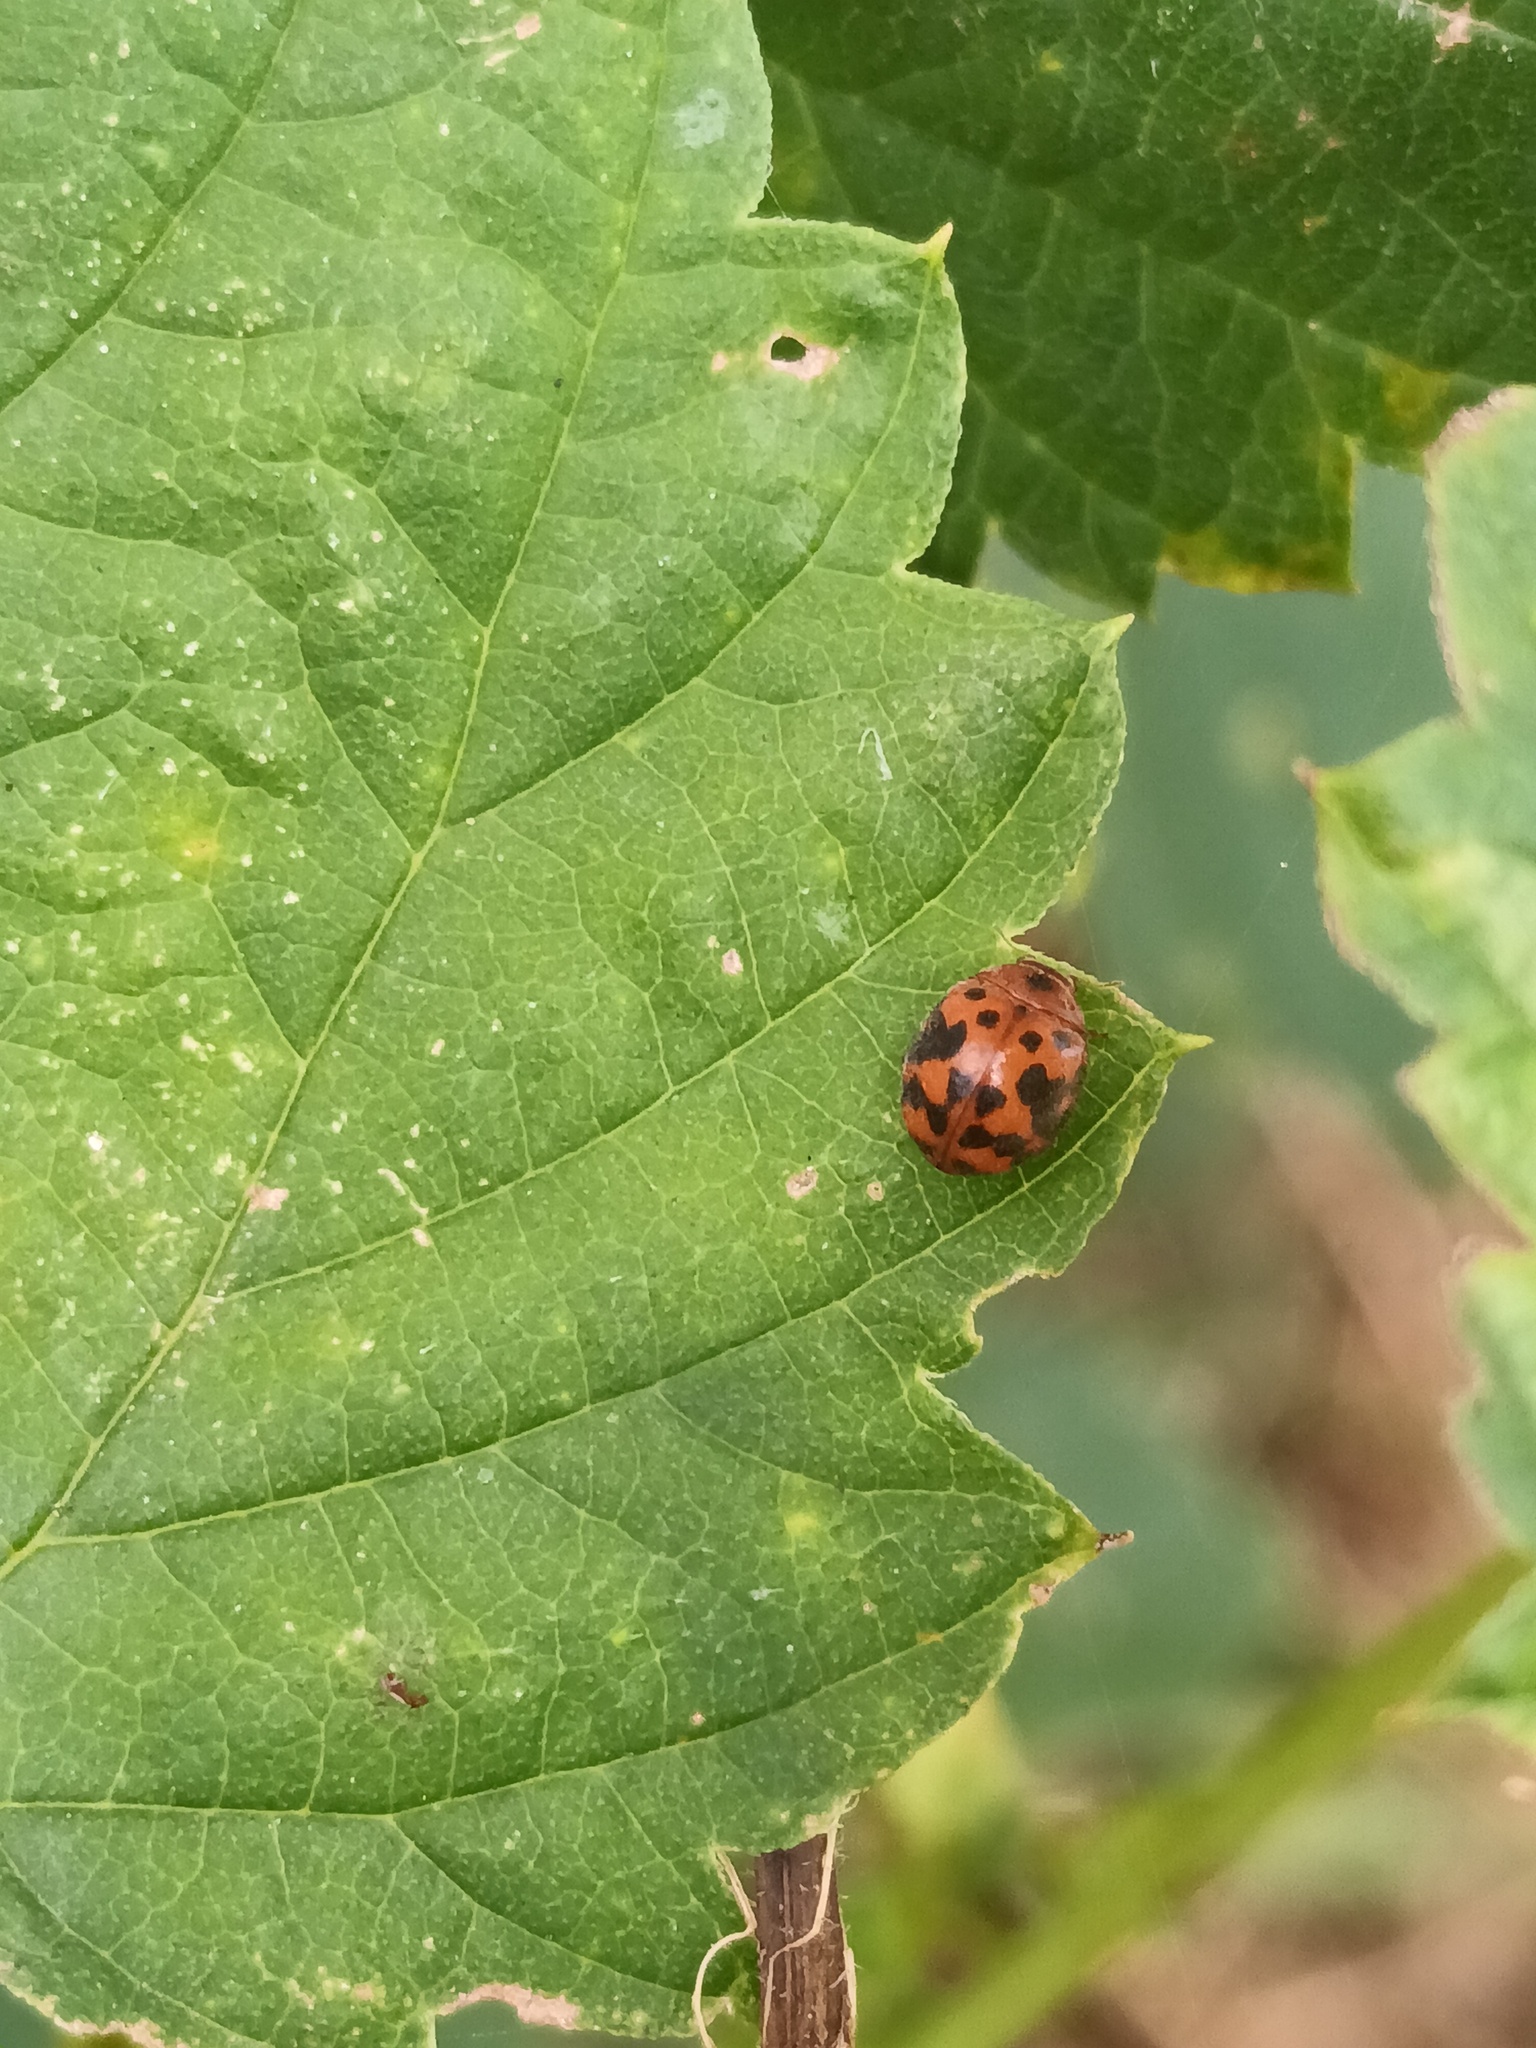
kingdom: Animalia
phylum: Arthropoda
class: Insecta
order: Coleoptera
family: Coccinellidae
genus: Subcoccinella
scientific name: Subcoccinella vigintiquatuorpunctata
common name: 24-spot ladybird
